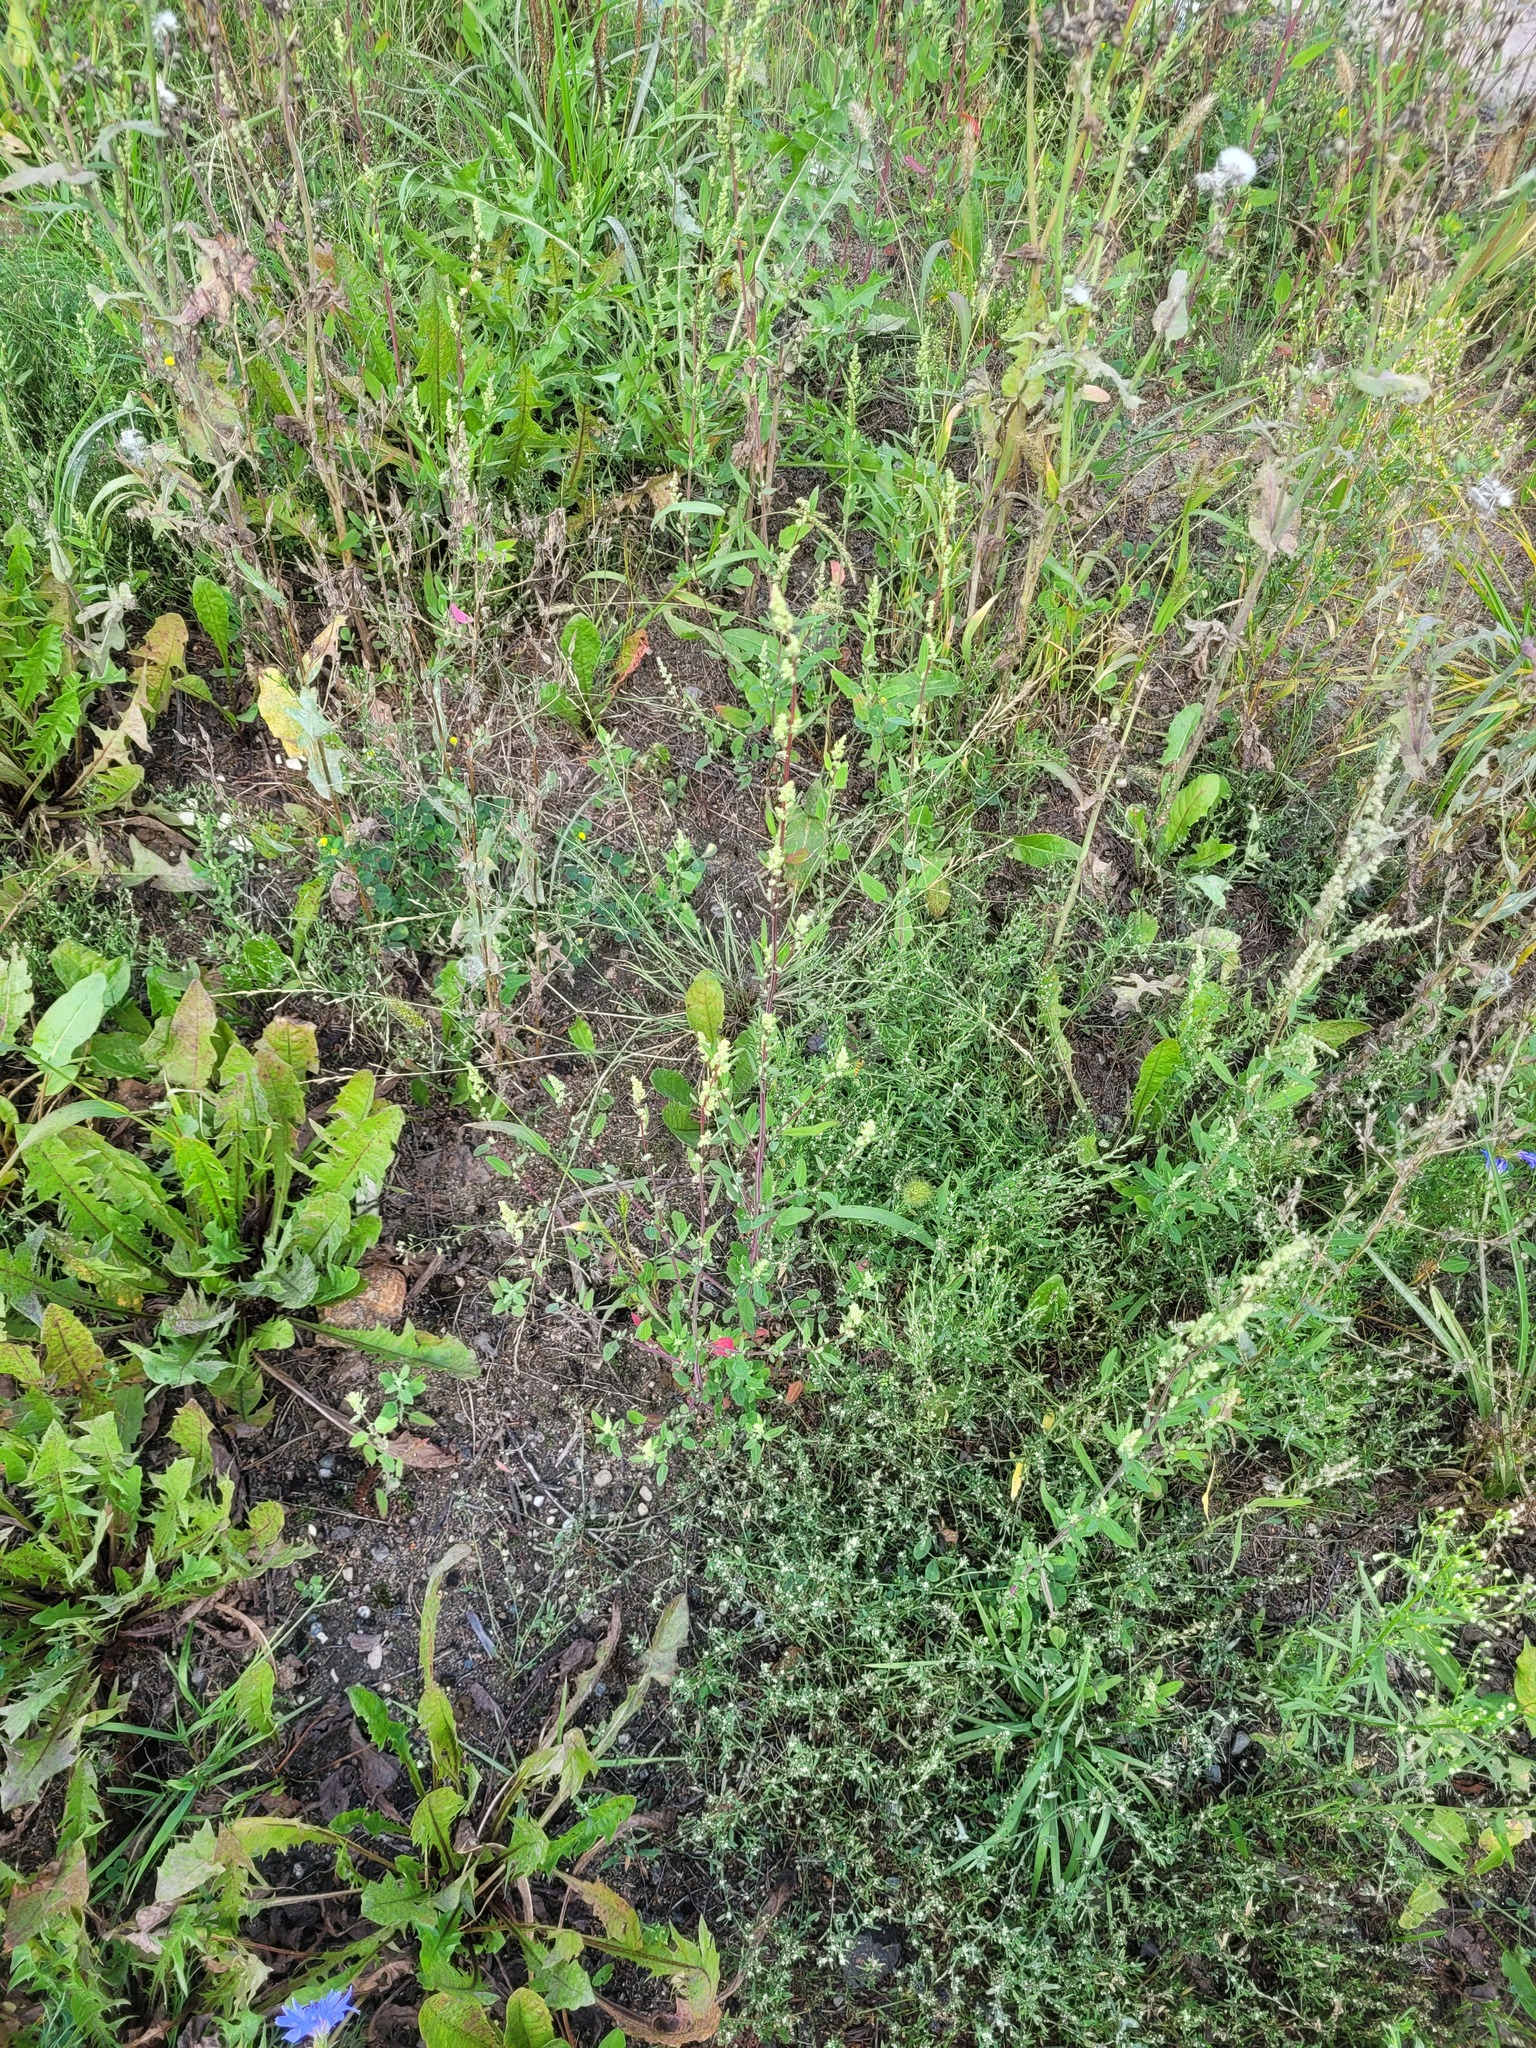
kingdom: Plantae
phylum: Tracheophyta
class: Magnoliopsida
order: Caryophyllales
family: Amaranthaceae
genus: Chenopodium
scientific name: Chenopodium betaceum
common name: Striped goosefoot
